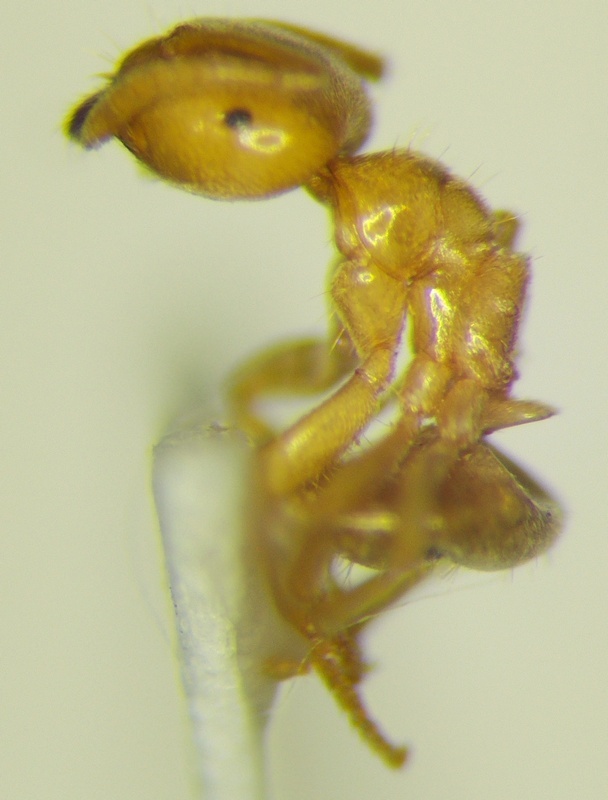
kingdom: Animalia
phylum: Arthropoda
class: Insecta
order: Hymenoptera
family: Formicidae
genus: Lasius
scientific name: Lasius flavus
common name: Blond field ant
